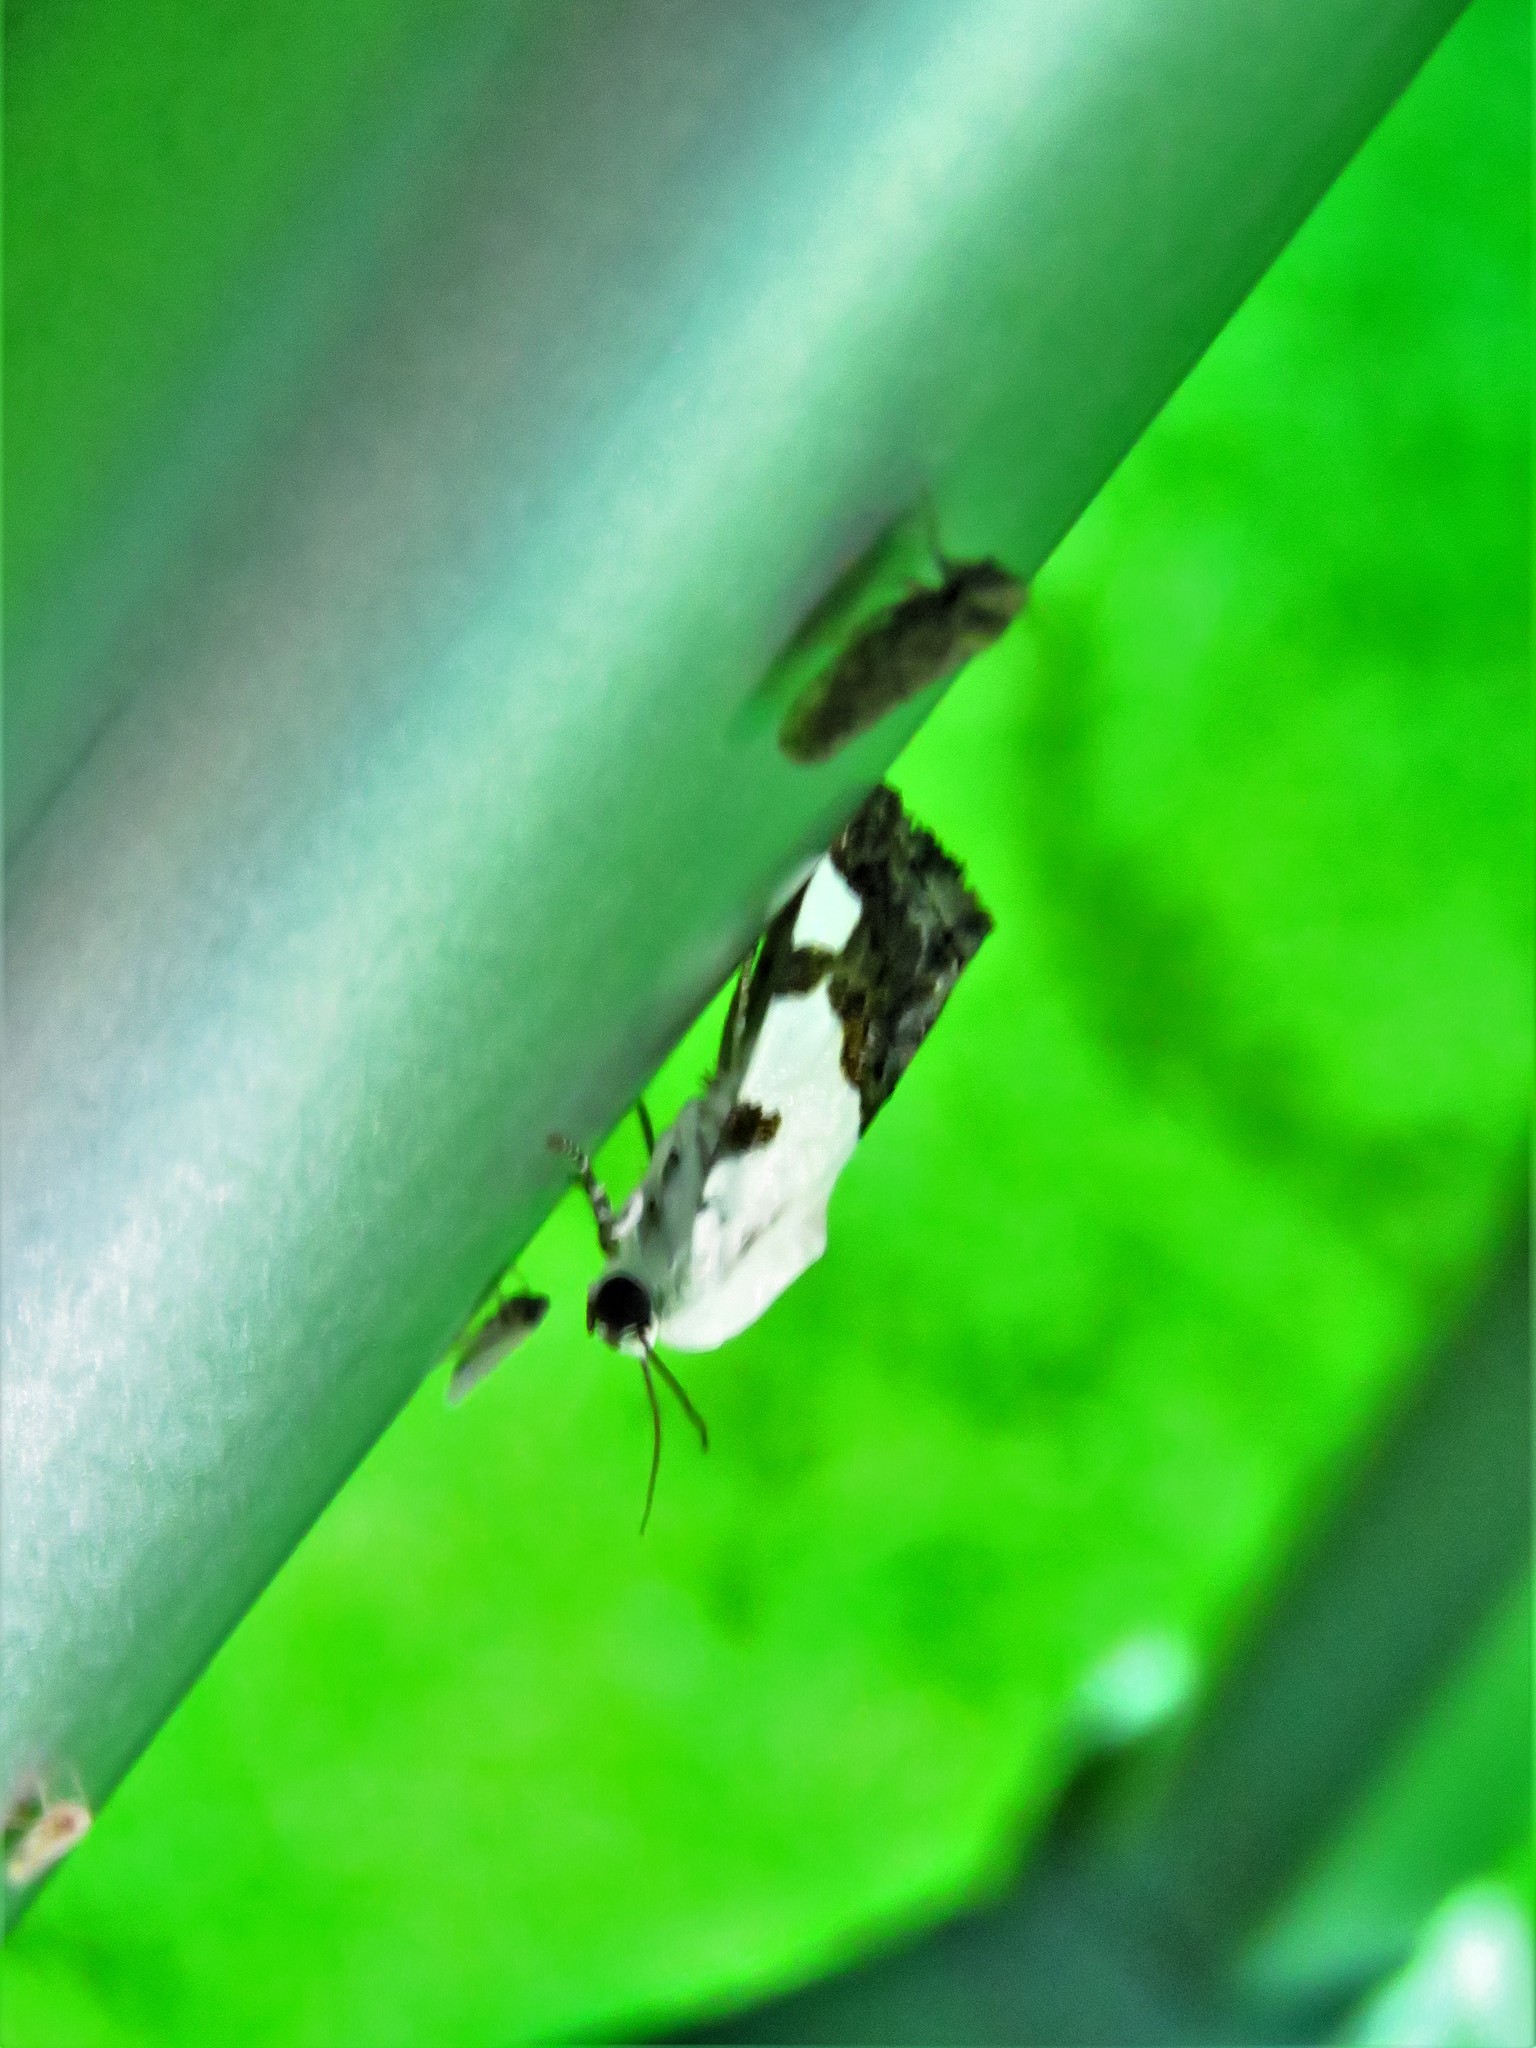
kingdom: Animalia
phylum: Arthropoda
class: Insecta
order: Lepidoptera
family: Noctuidae
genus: Acontia
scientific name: Acontia Tarache tetragona
